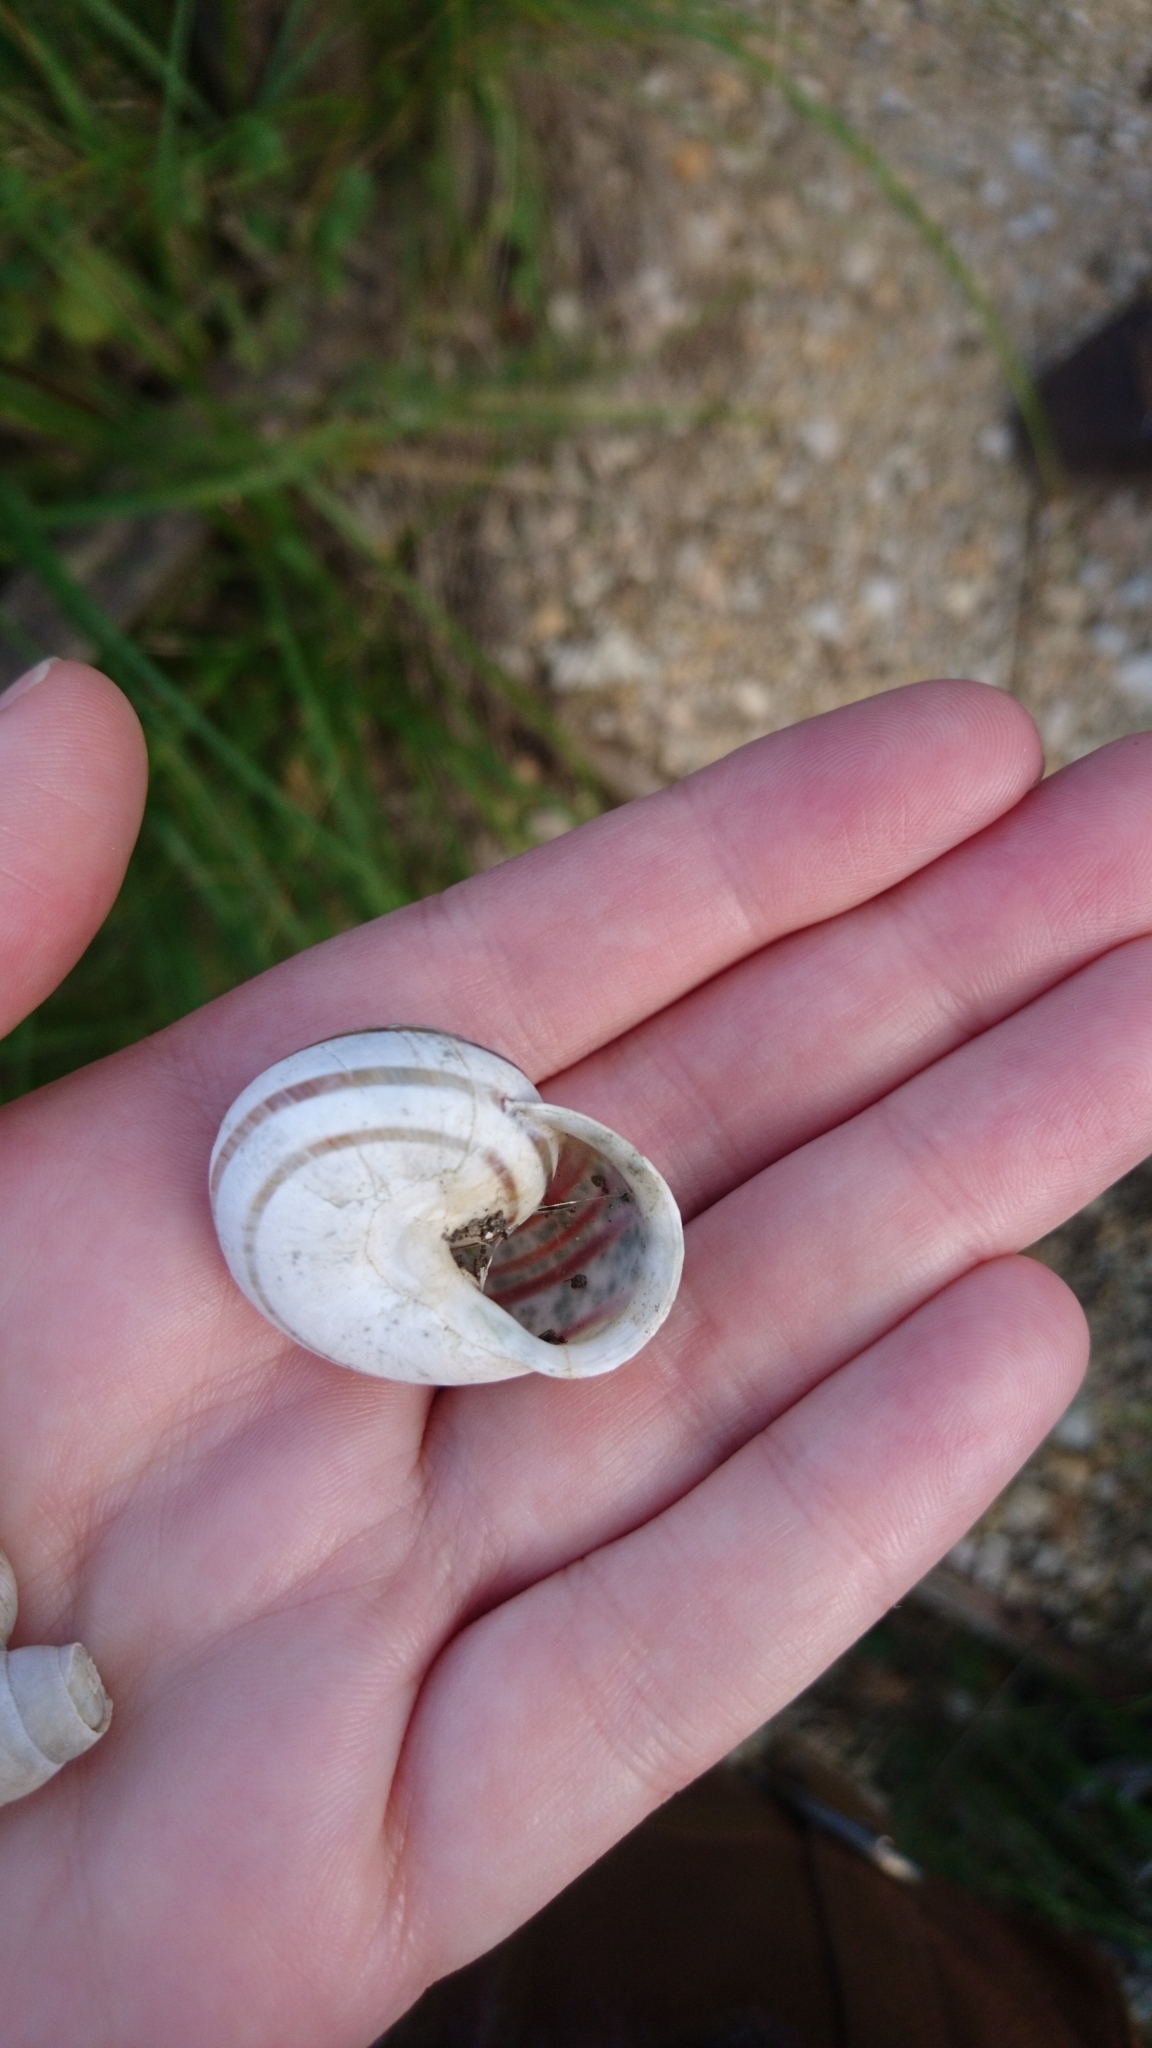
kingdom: Animalia
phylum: Mollusca
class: Gastropoda
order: Stylommatophora
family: Helicidae
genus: Eobania
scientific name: Eobania vermiculata
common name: Chocolateband snail
